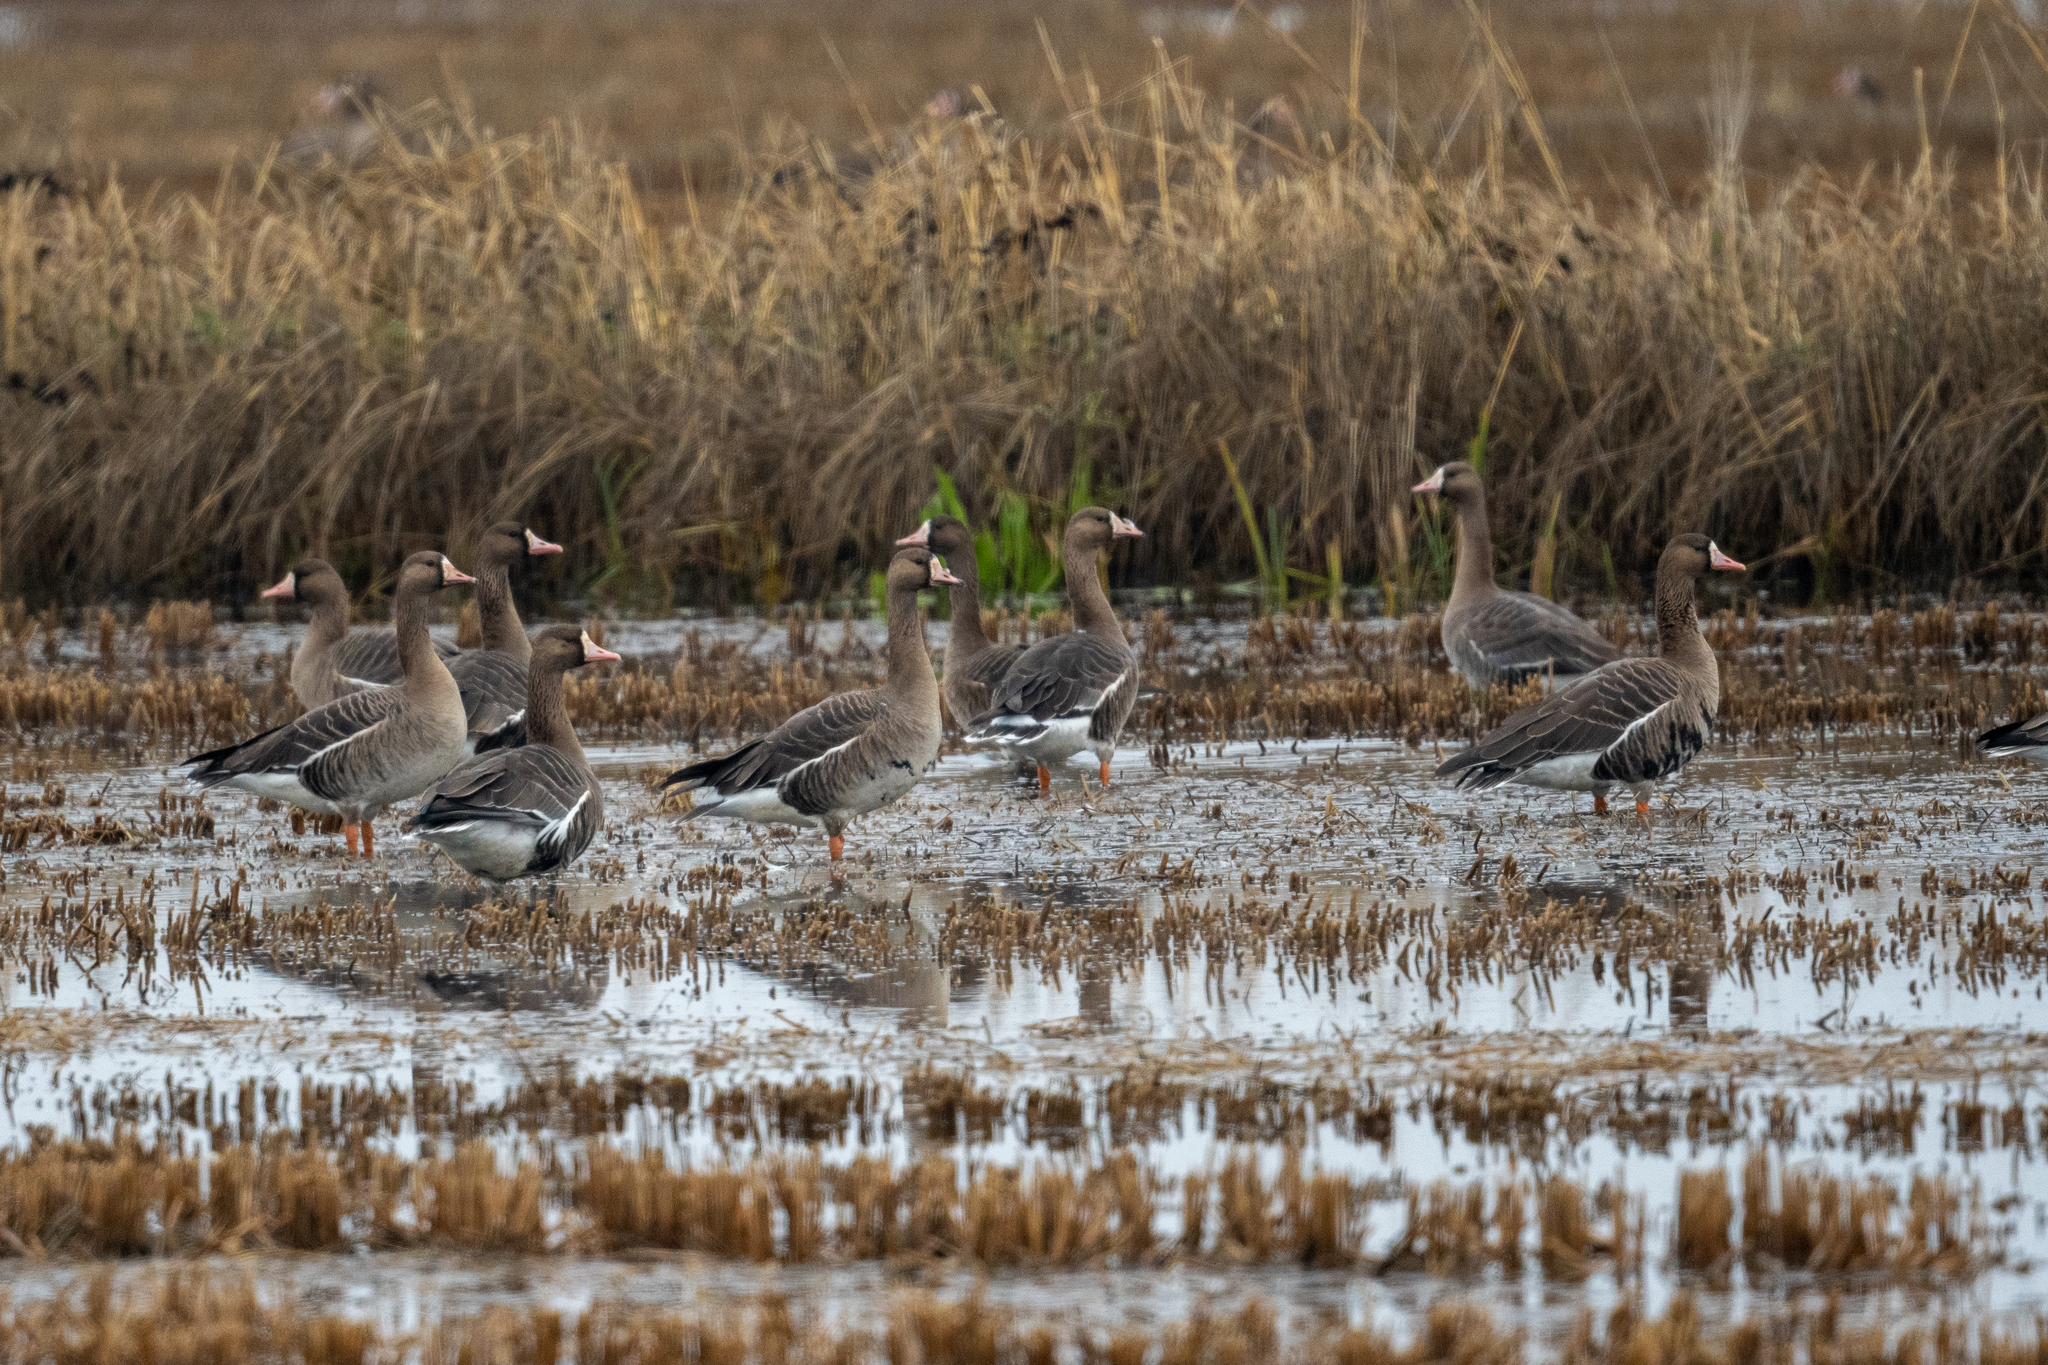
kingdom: Animalia
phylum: Chordata
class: Aves
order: Anseriformes
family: Anatidae
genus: Anser
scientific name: Anser albifrons
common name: Greater white-fronted goose
